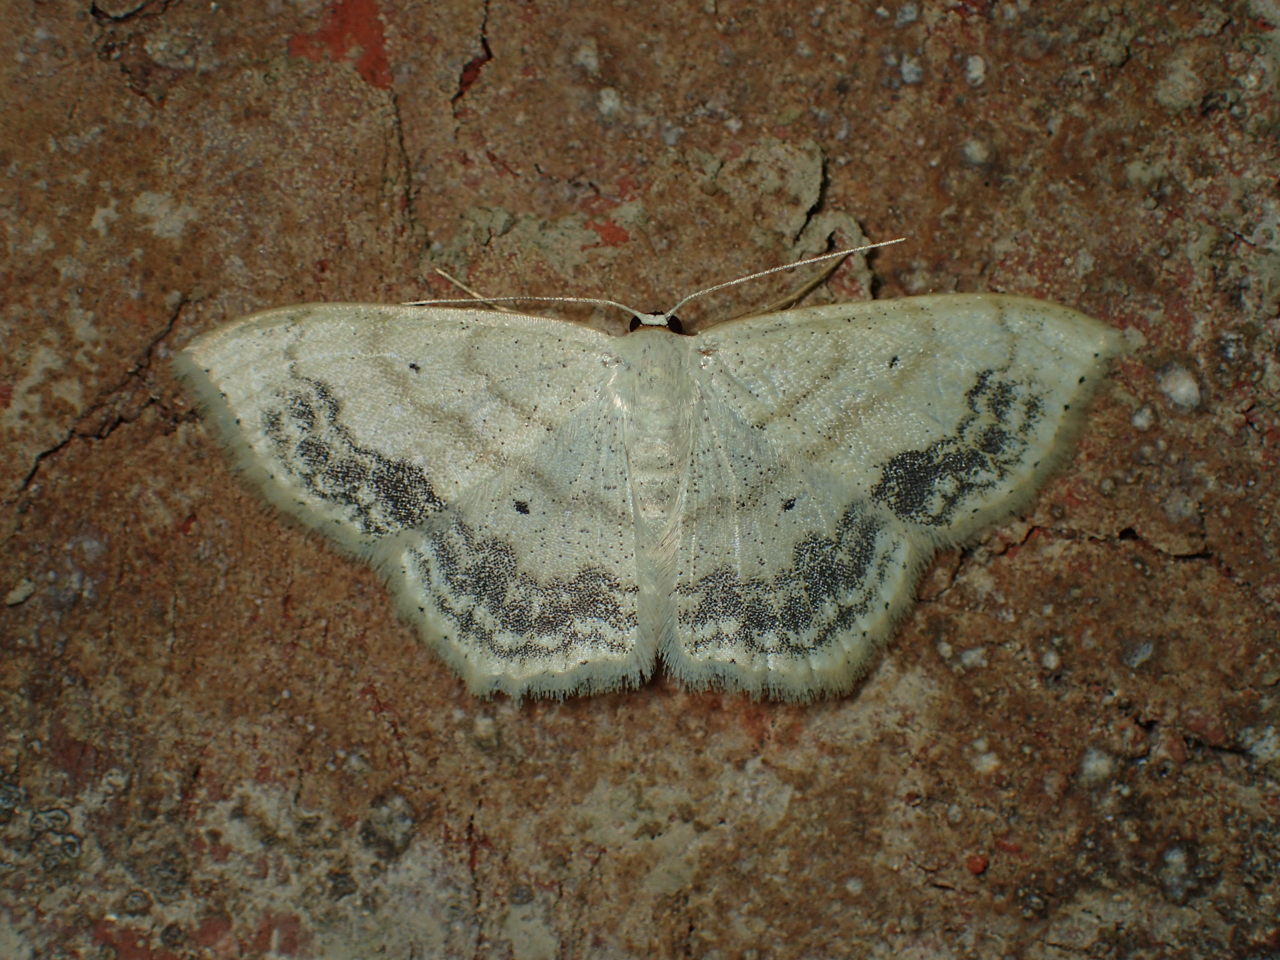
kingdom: Animalia
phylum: Arthropoda
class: Insecta
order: Lepidoptera
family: Geometridae
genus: Scopula
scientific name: Scopula limboundata
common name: Large lace border
